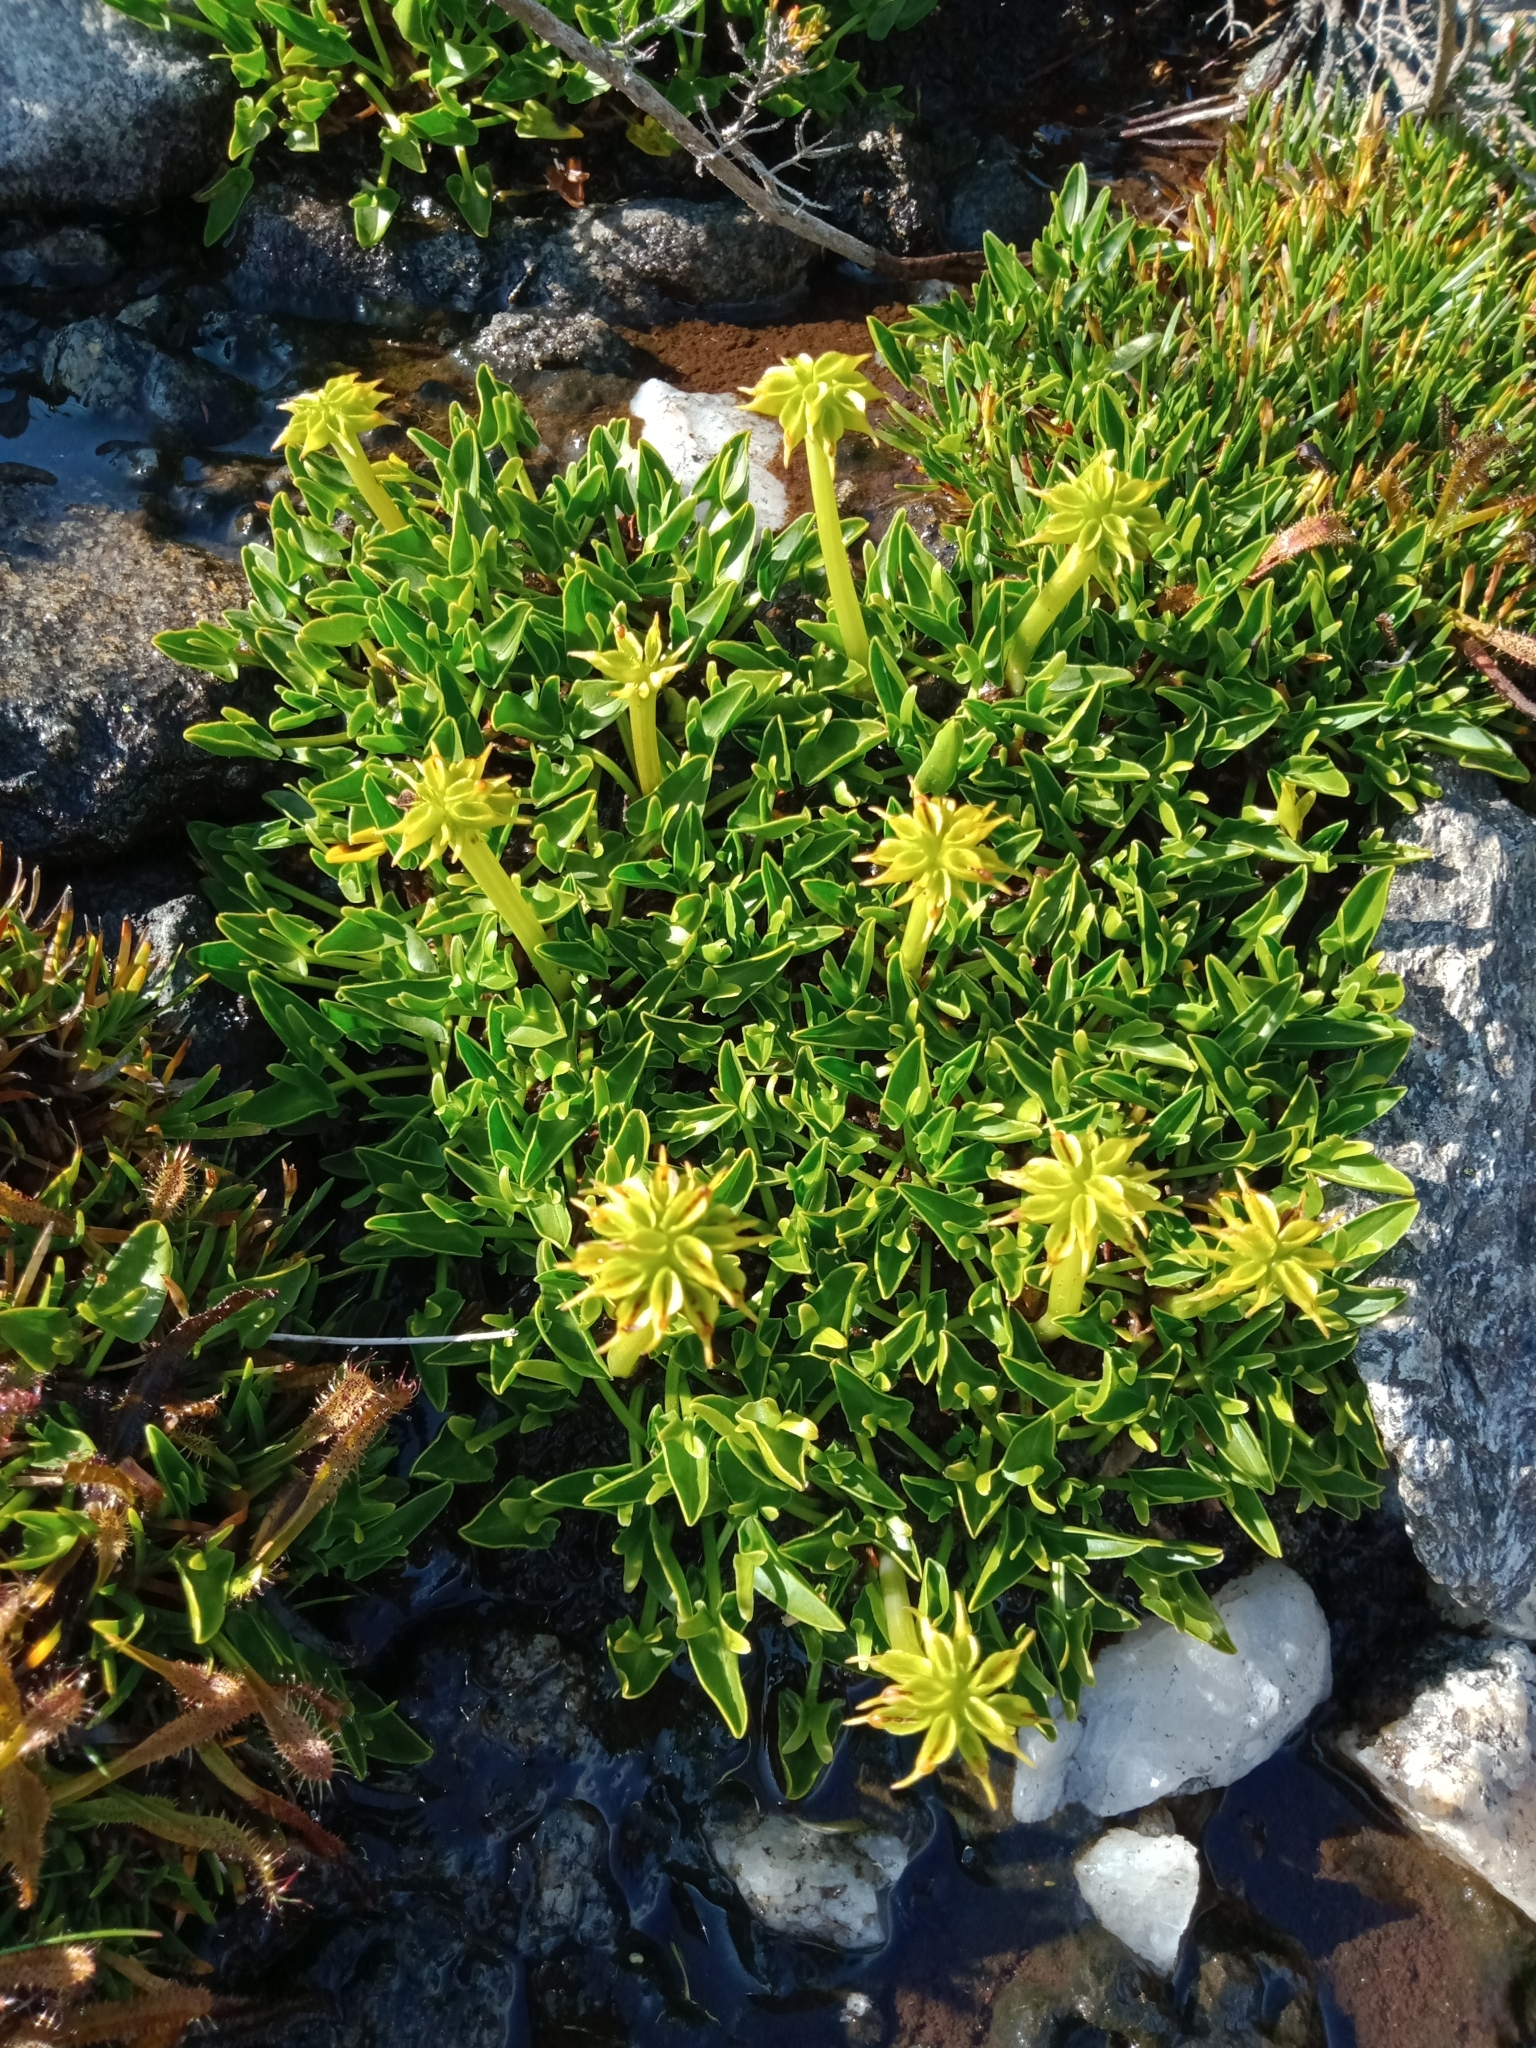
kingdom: Plantae
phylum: Tracheophyta
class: Magnoliopsida
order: Ranunculales
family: Ranunculaceae
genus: Caltha
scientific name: Caltha introloba
